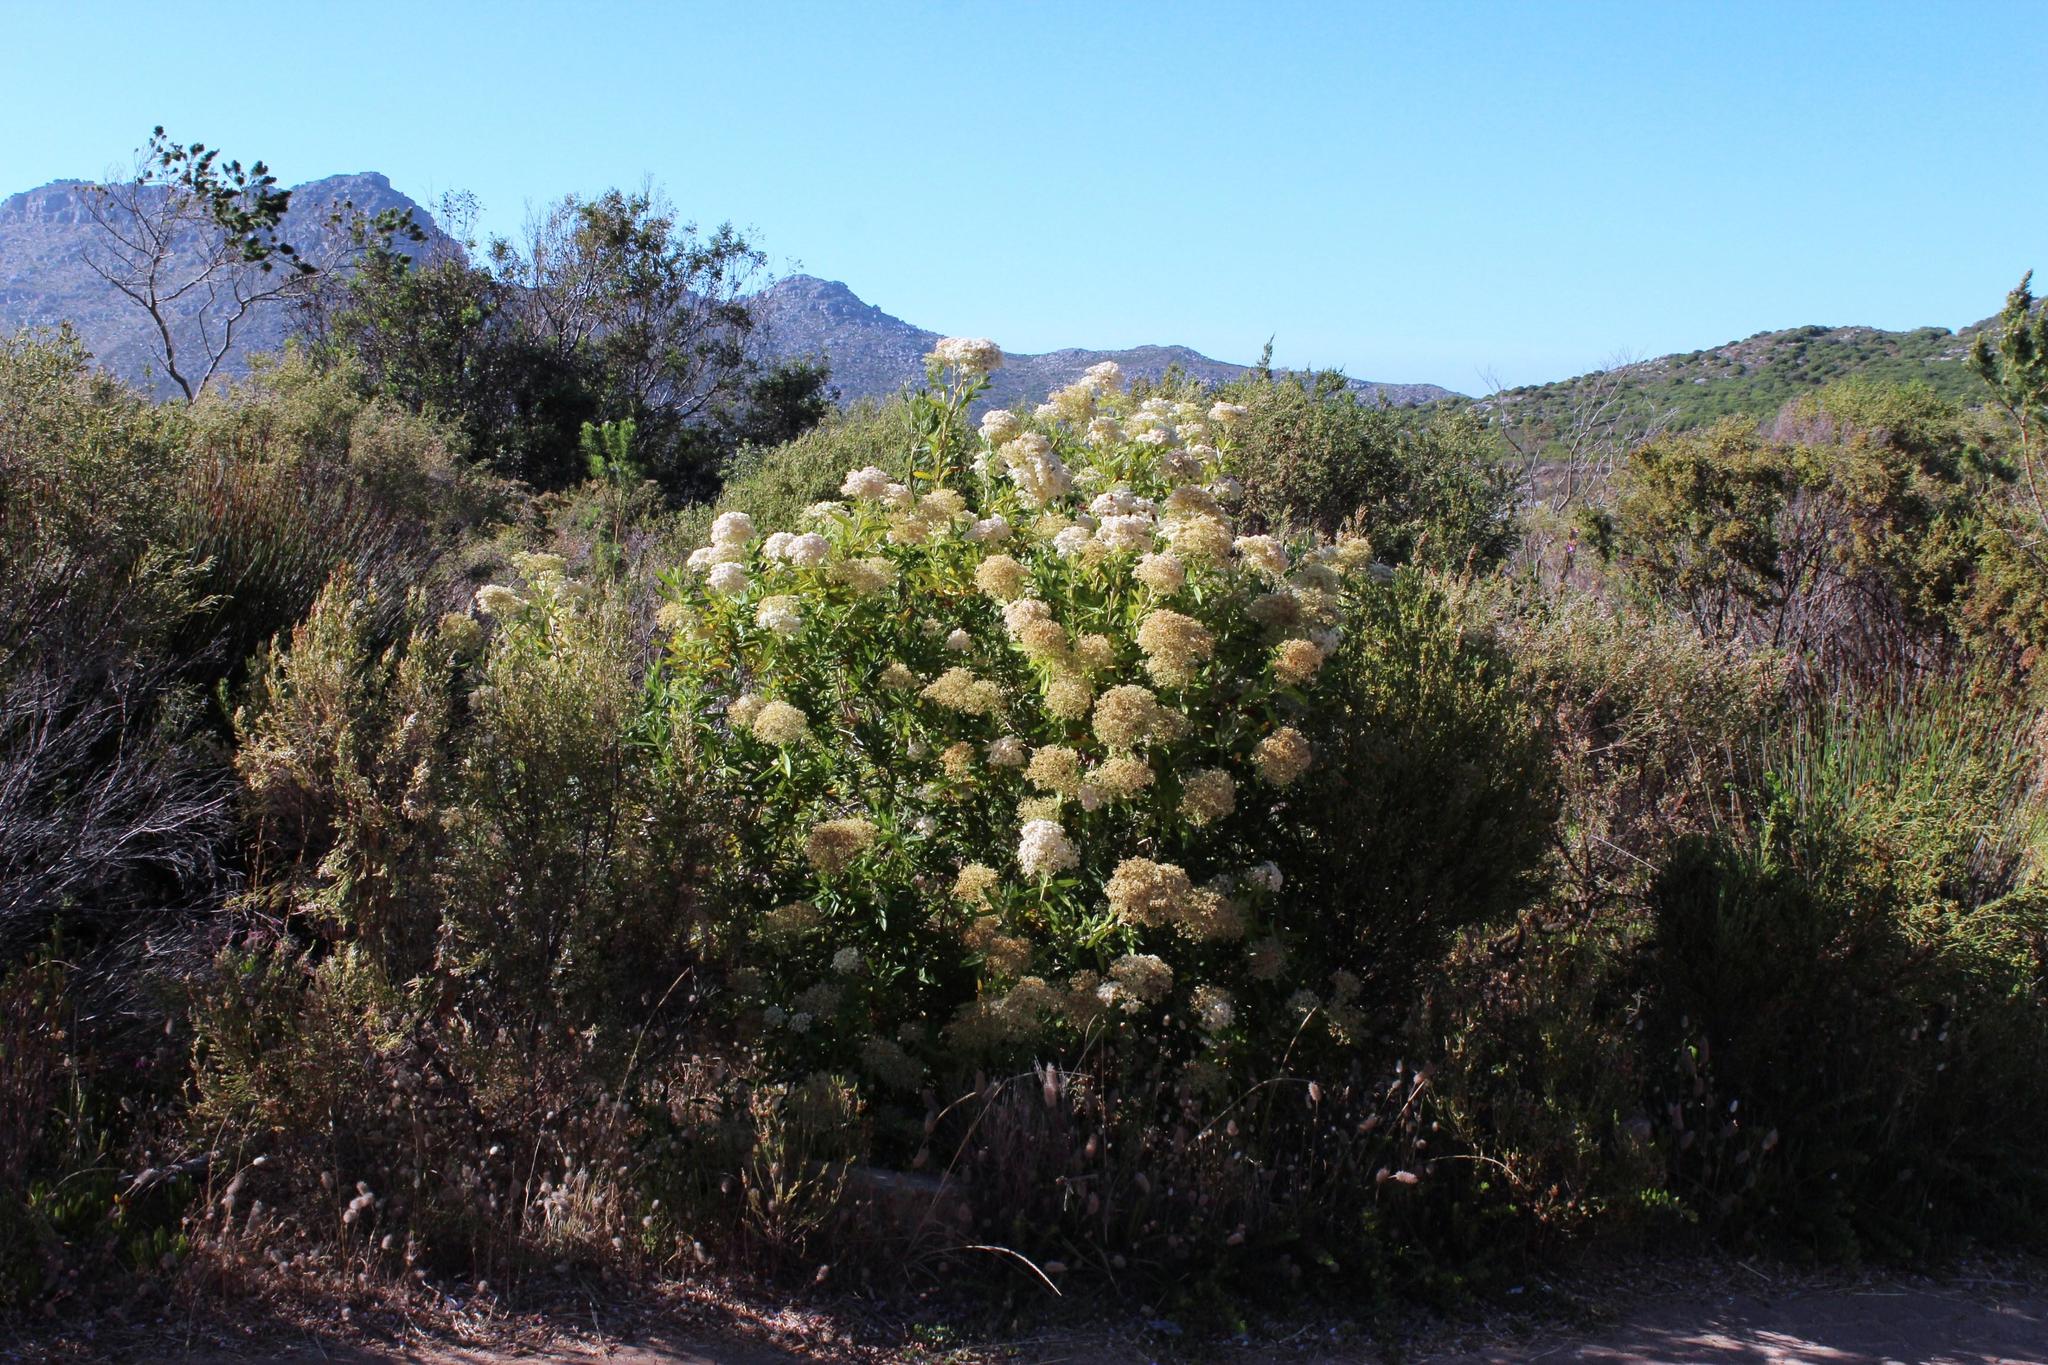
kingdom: Plantae
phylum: Tracheophyta
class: Magnoliopsida
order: Lamiales
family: Scrophulariaceae
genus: Buddleja
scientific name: Buddleja saligna
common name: False olive
